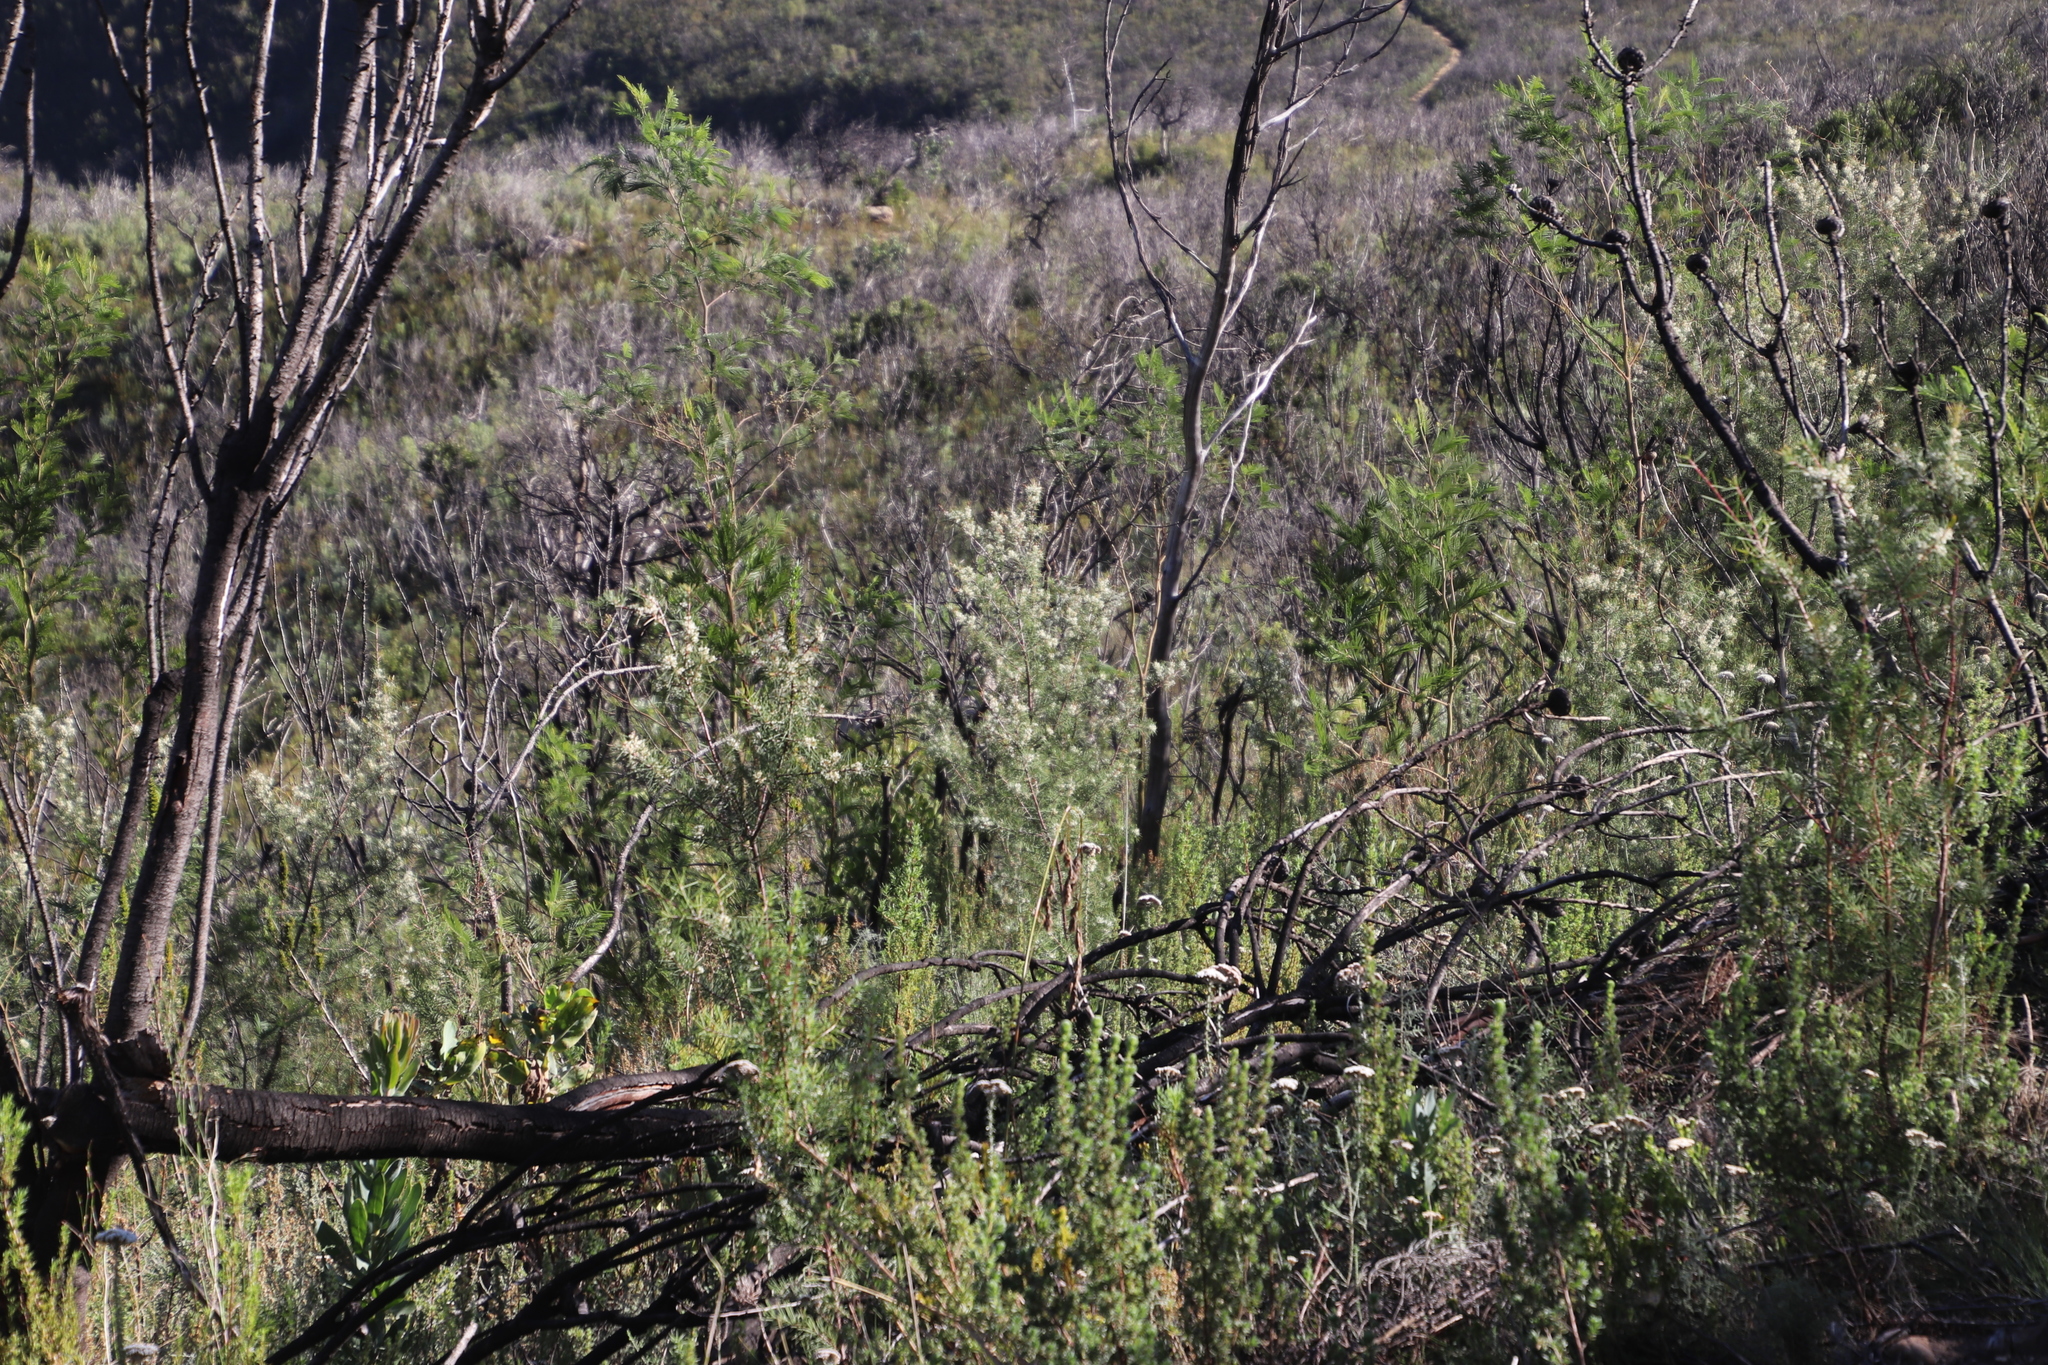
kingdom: Plantae
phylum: Tracheophyta
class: Magnoliopsida
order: Proteales
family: Proteaceae
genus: Hakea
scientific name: Hakea sericea
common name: Needle bush
